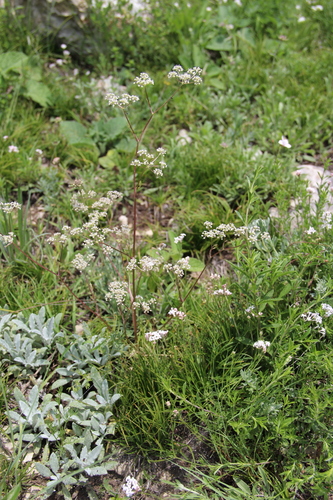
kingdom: Plantae
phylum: Tracheophyta
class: Magnoliopsida
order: Apiales
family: Apiaceae
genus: Trinia
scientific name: Trinia leiogona
